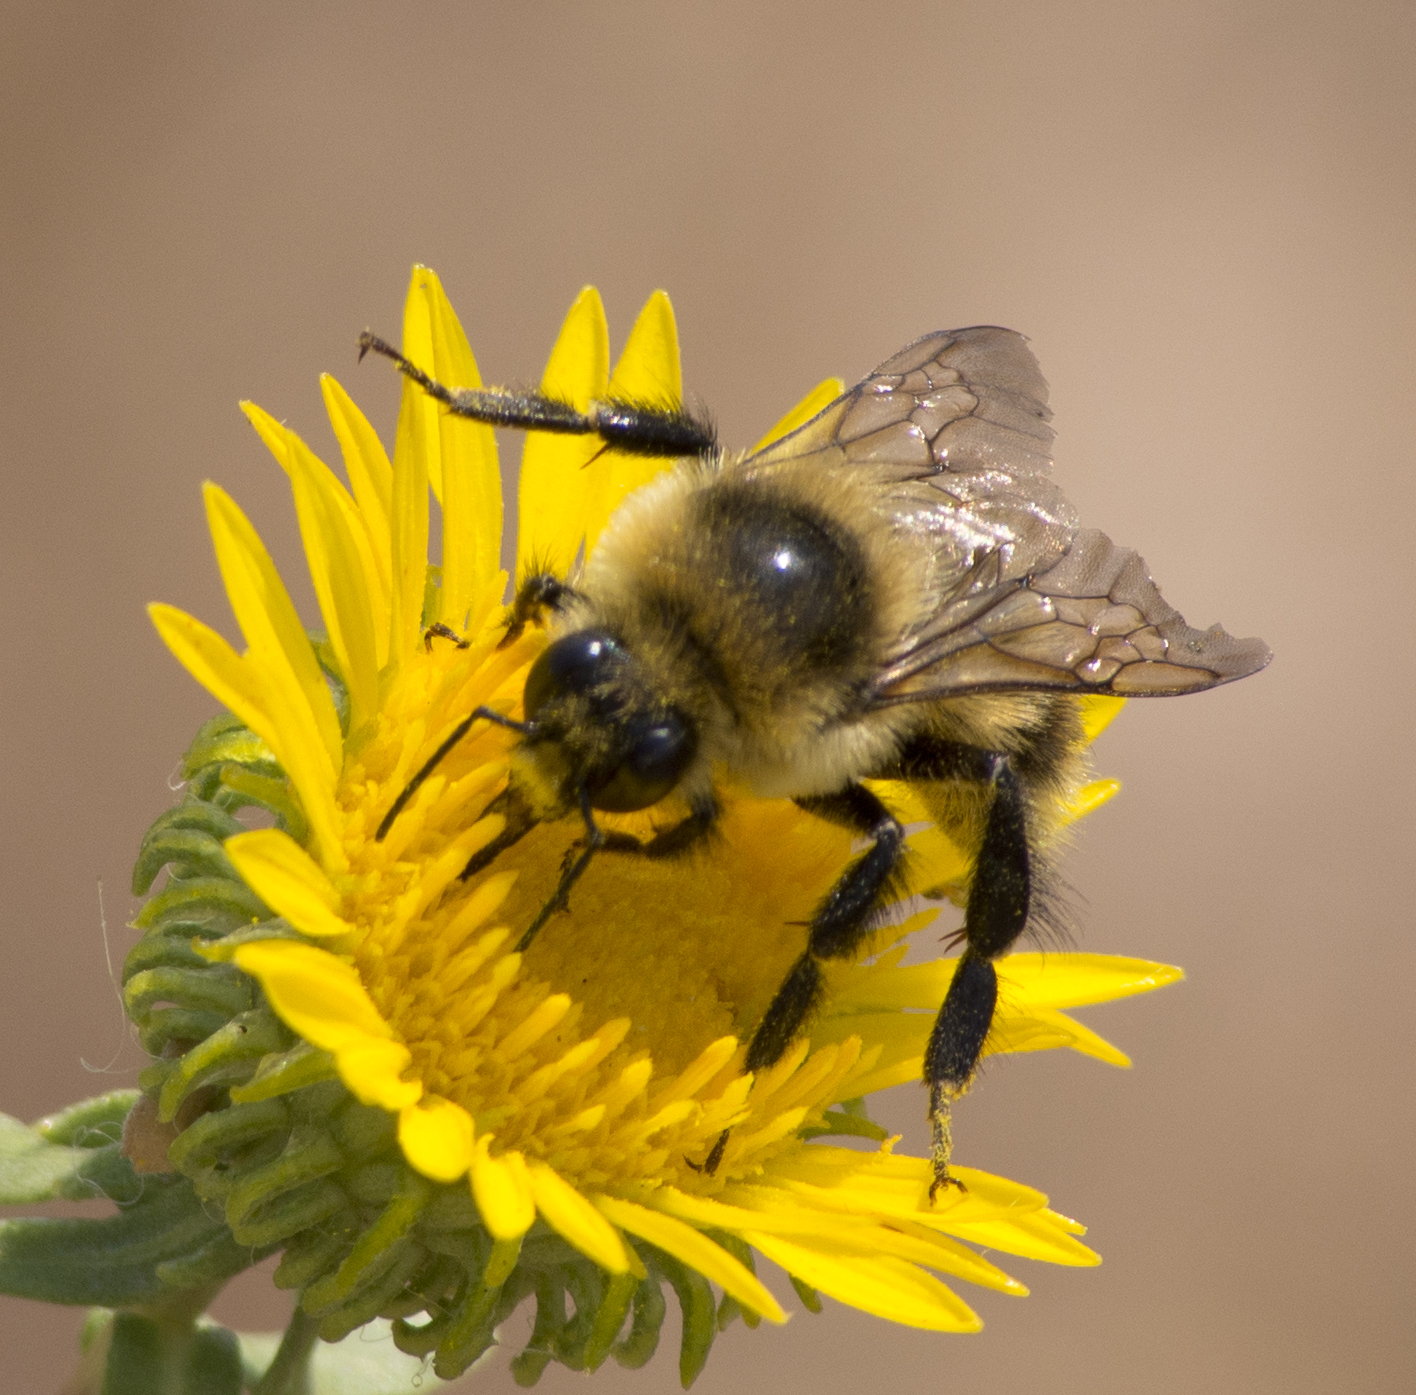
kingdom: Animalia
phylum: Arthropoda
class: Insecta
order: Hymenoptera
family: Apidae
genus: Bombus
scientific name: Bombus rufocinctus
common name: Red-belted bumble bee
